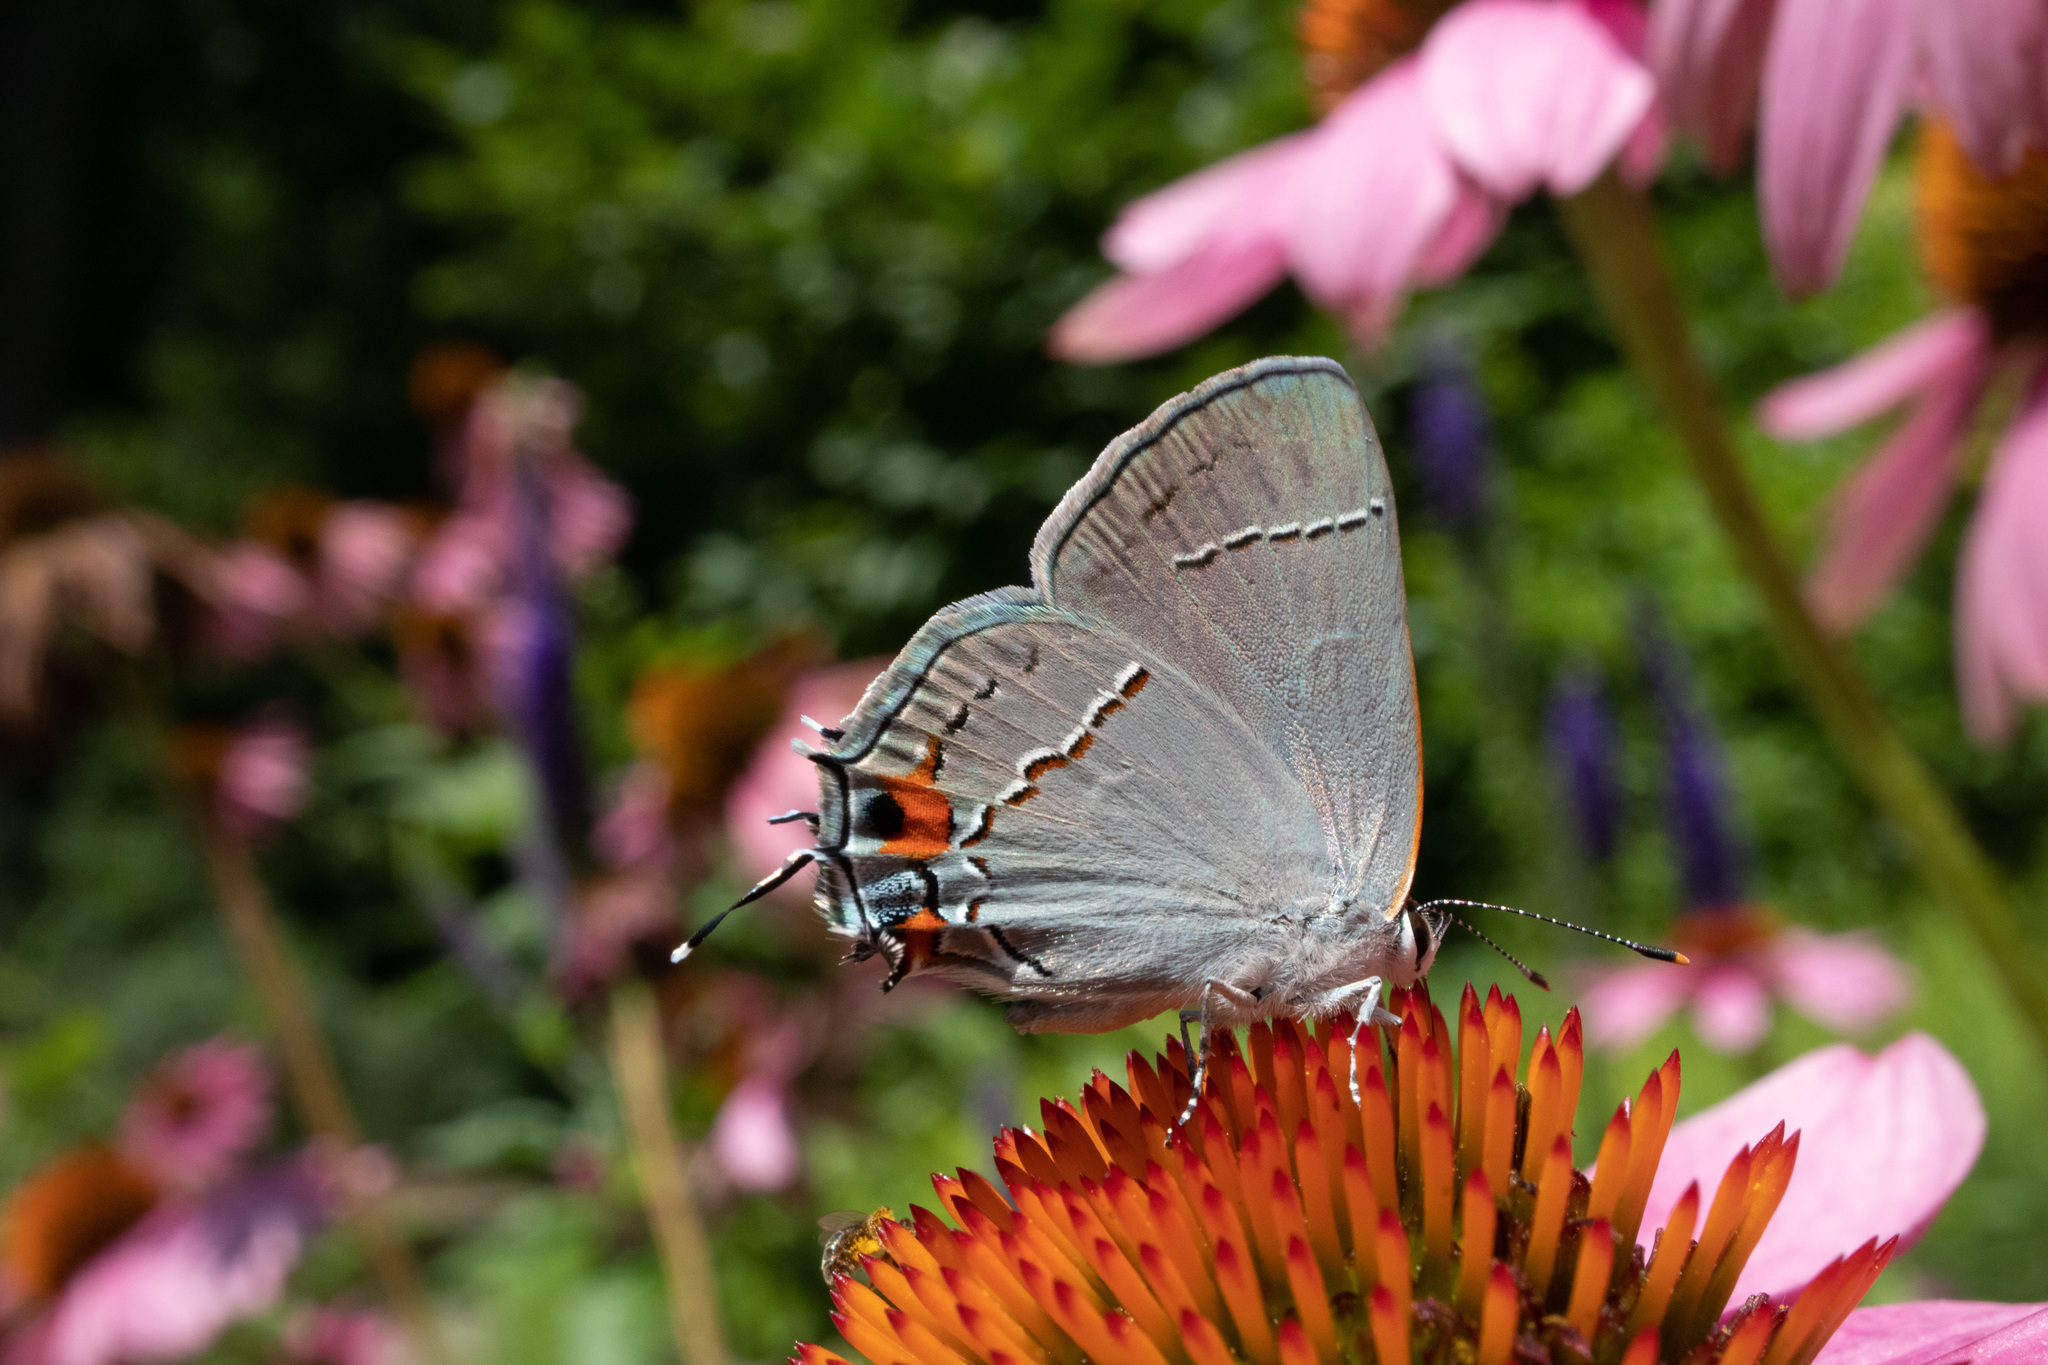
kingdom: Animalia
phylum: Arthropoda
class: Insecta
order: Lepidoptera
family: Lycaenidae
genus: Strymon
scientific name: Strymon melinus
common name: Gray hairstreak
